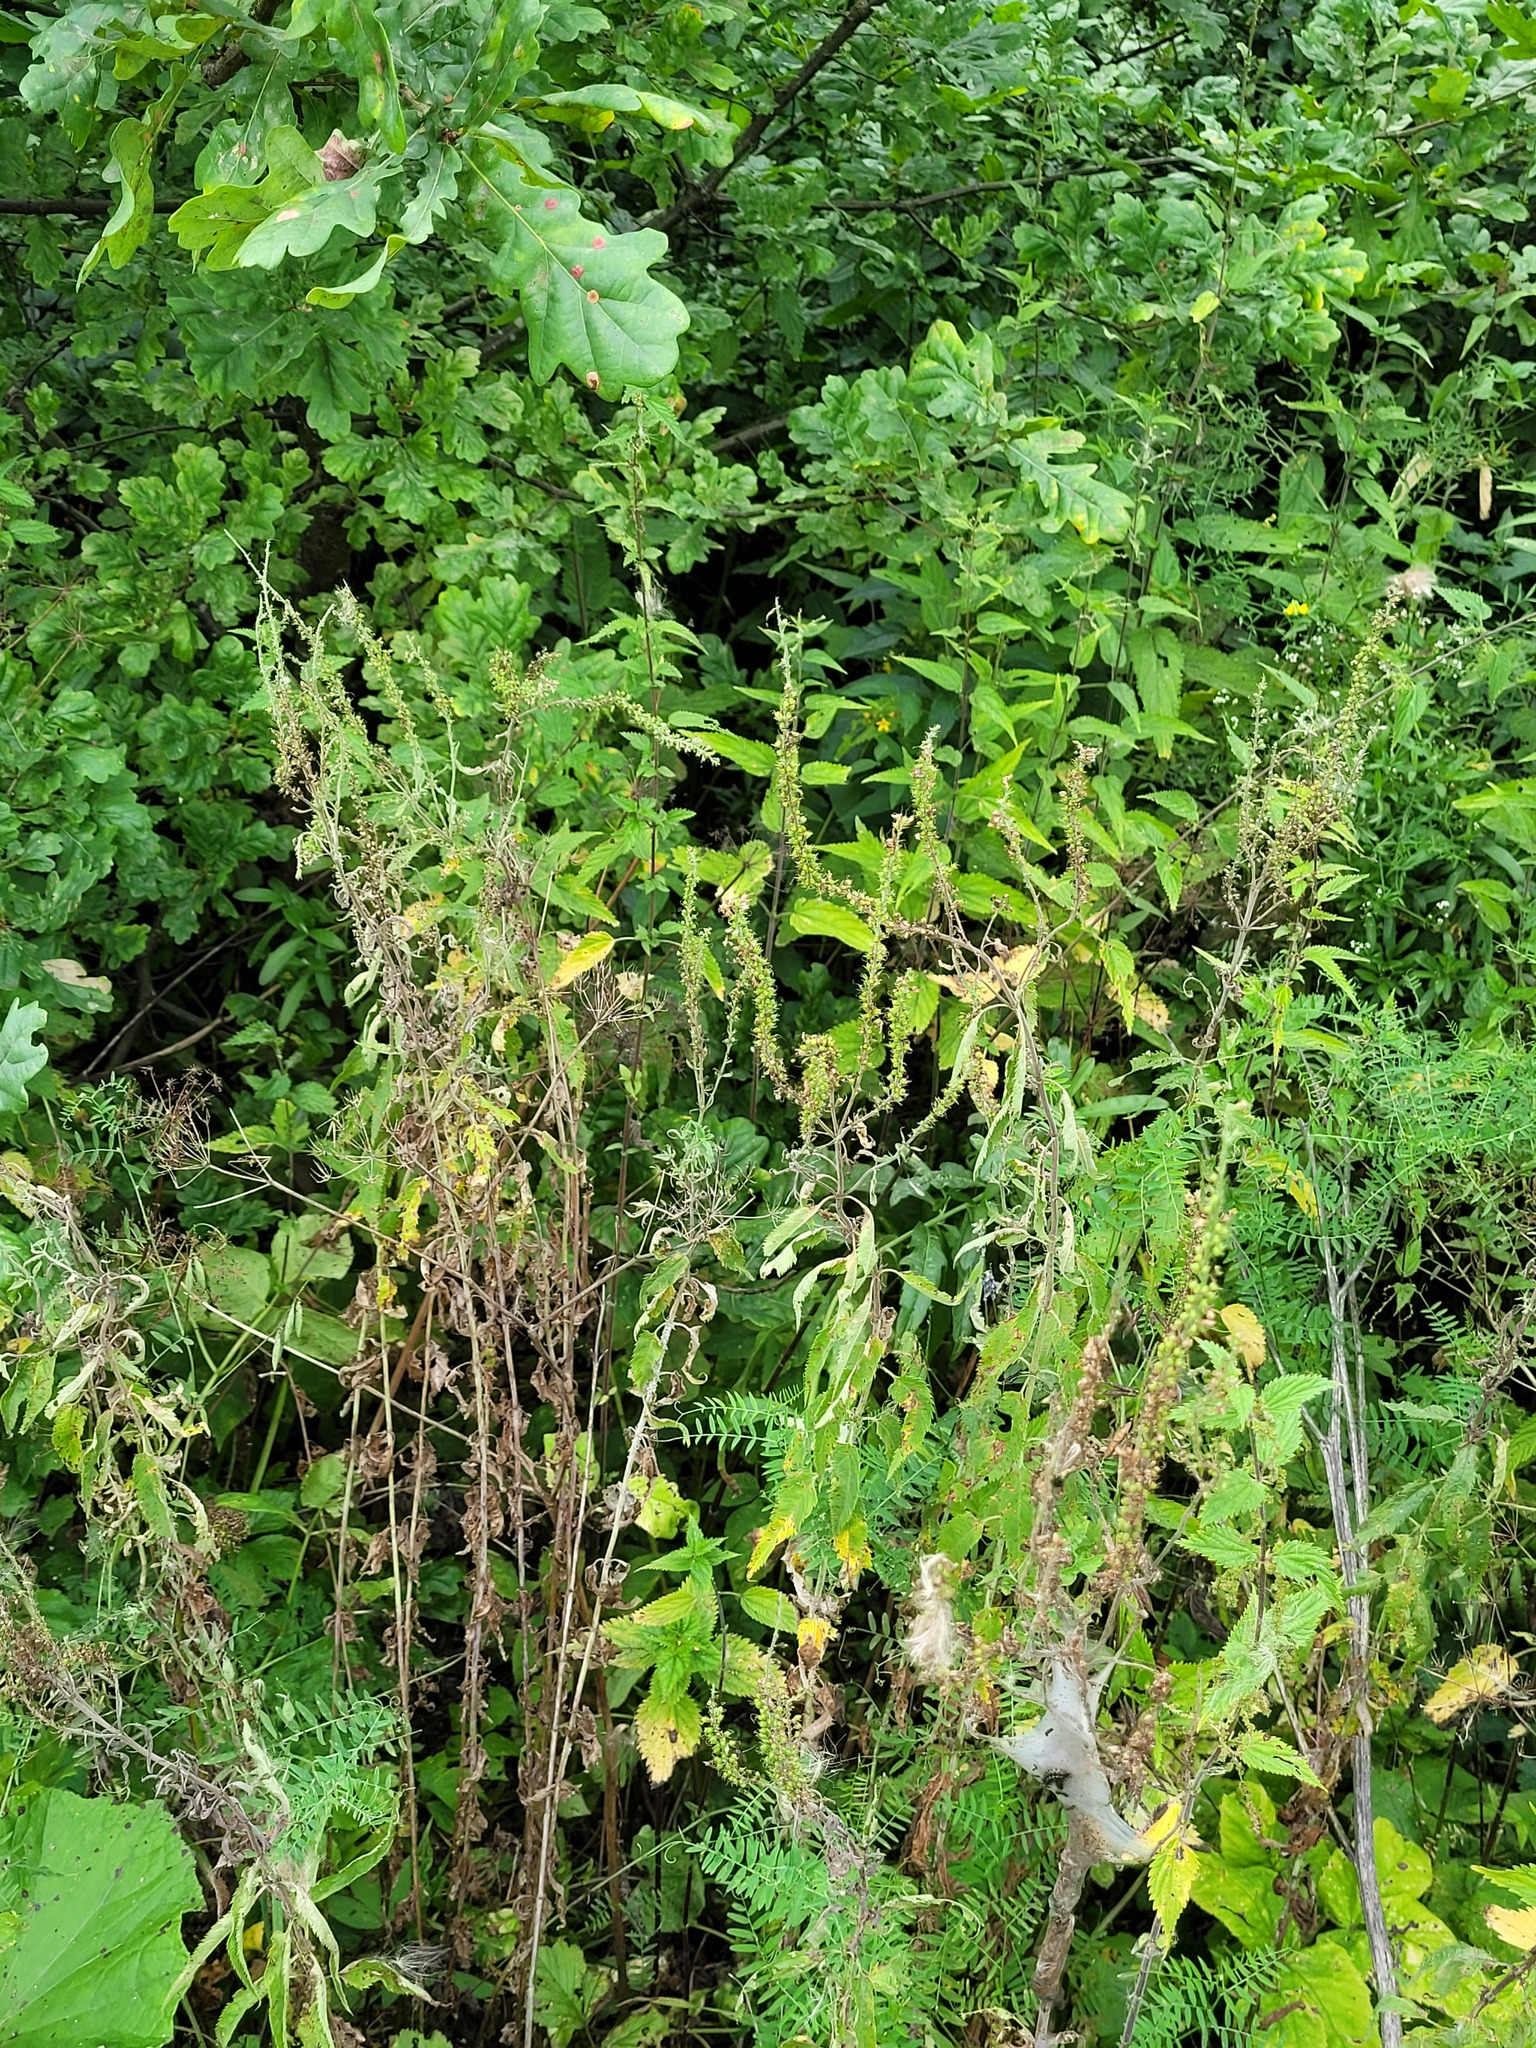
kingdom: Plantae
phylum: Tracheophyta
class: Magnoliopsida
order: Lamiales
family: Plantaginaceae
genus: Veronica
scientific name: Veronica longifolia
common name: Garden speedwell
